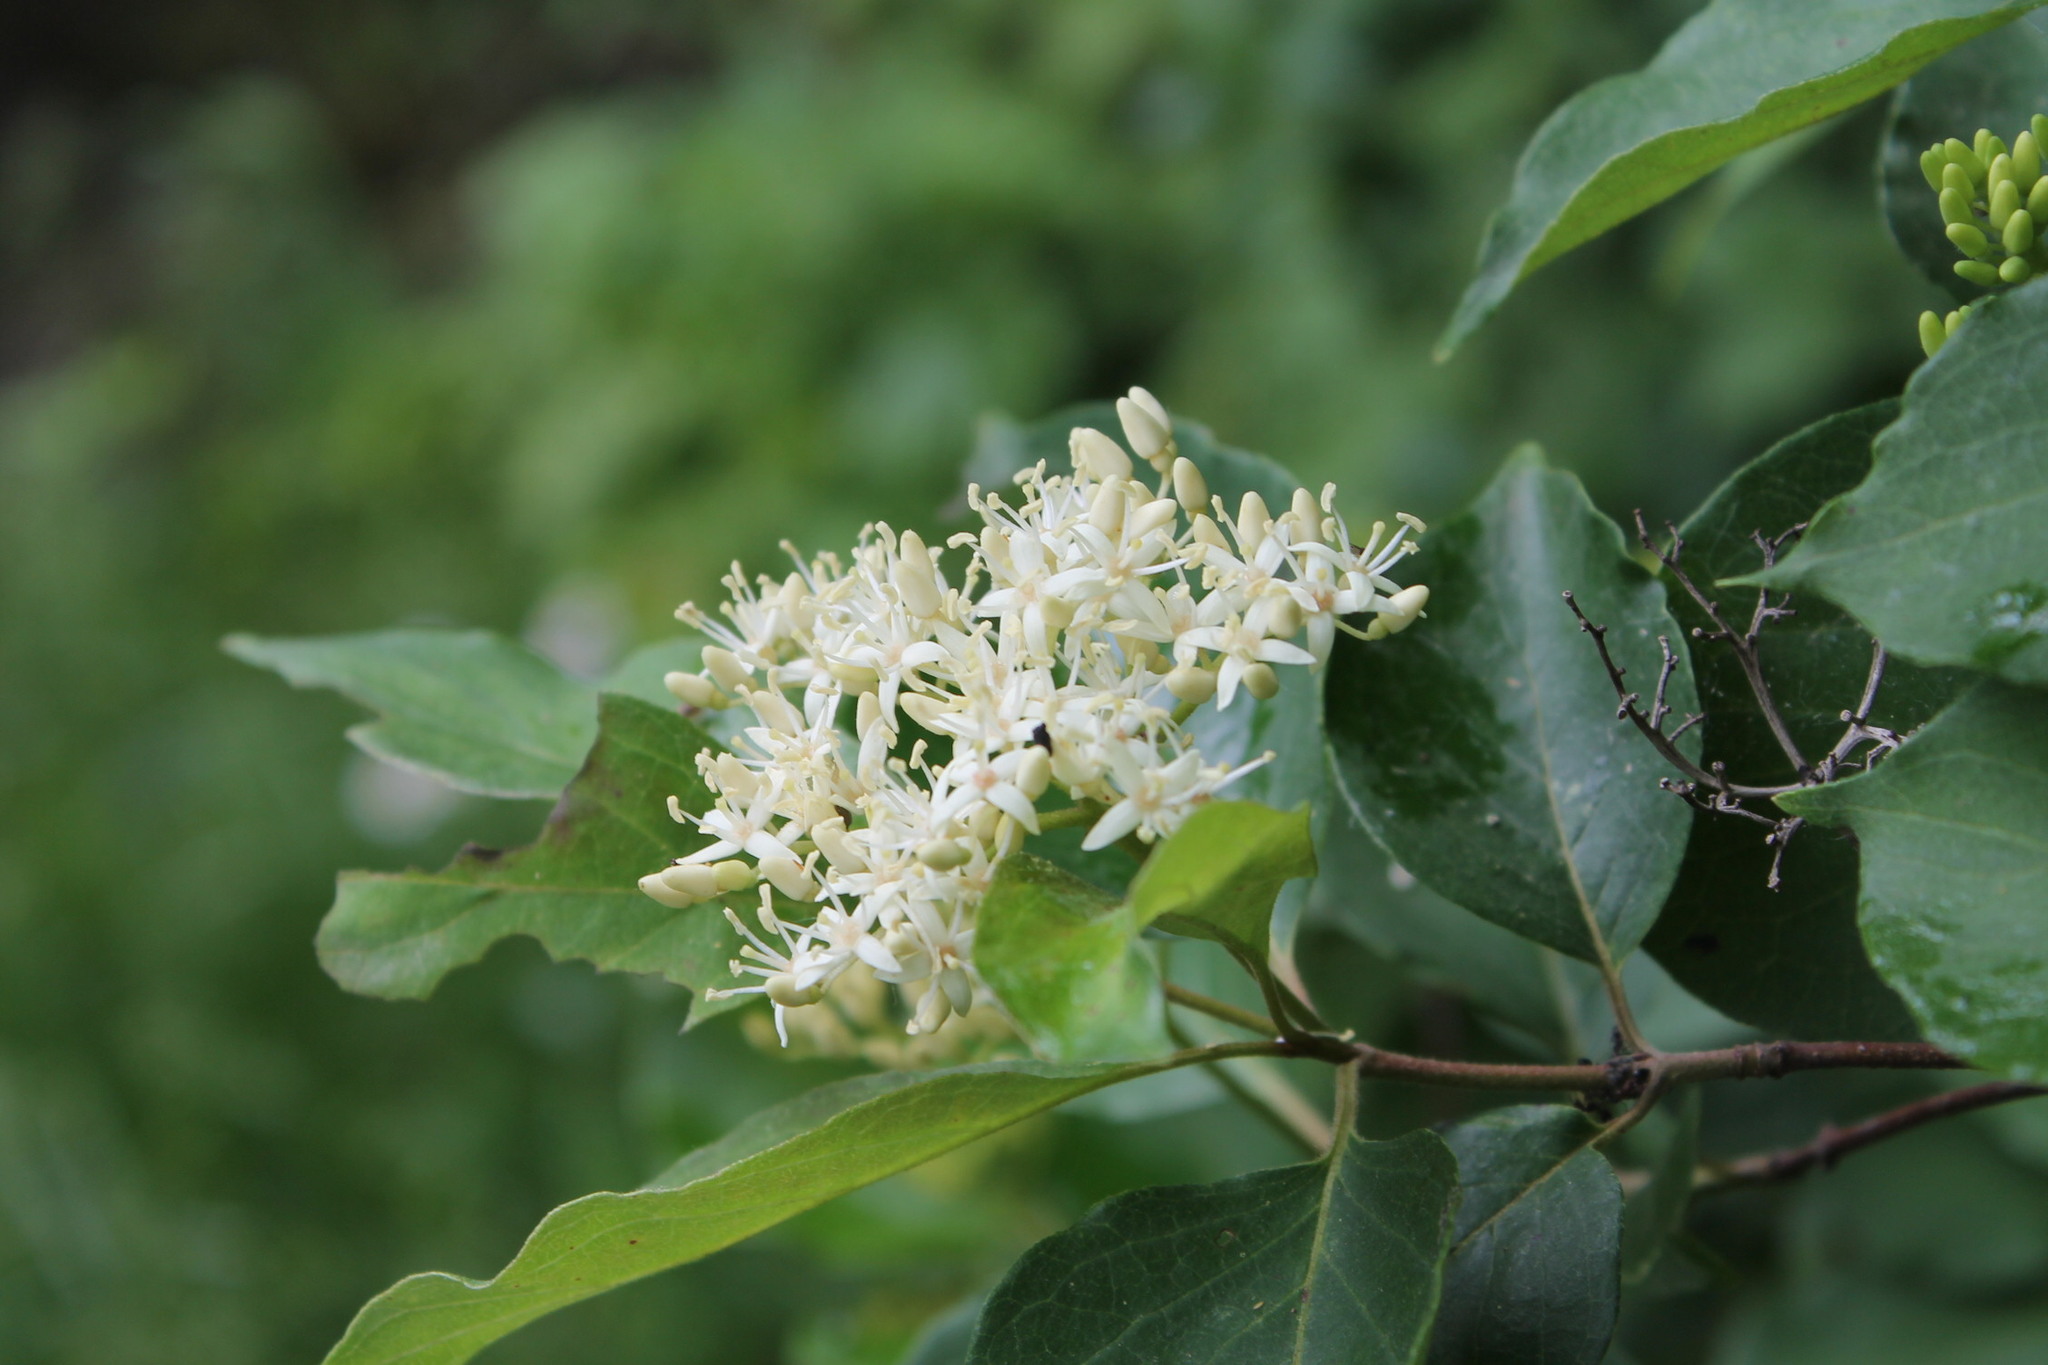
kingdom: Plantae
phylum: Tracheophyta
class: Magnoliopsida
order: Cornales
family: Cornaceae
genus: Cornus
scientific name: Cornus drummondii
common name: Rough-leaf dogwood
